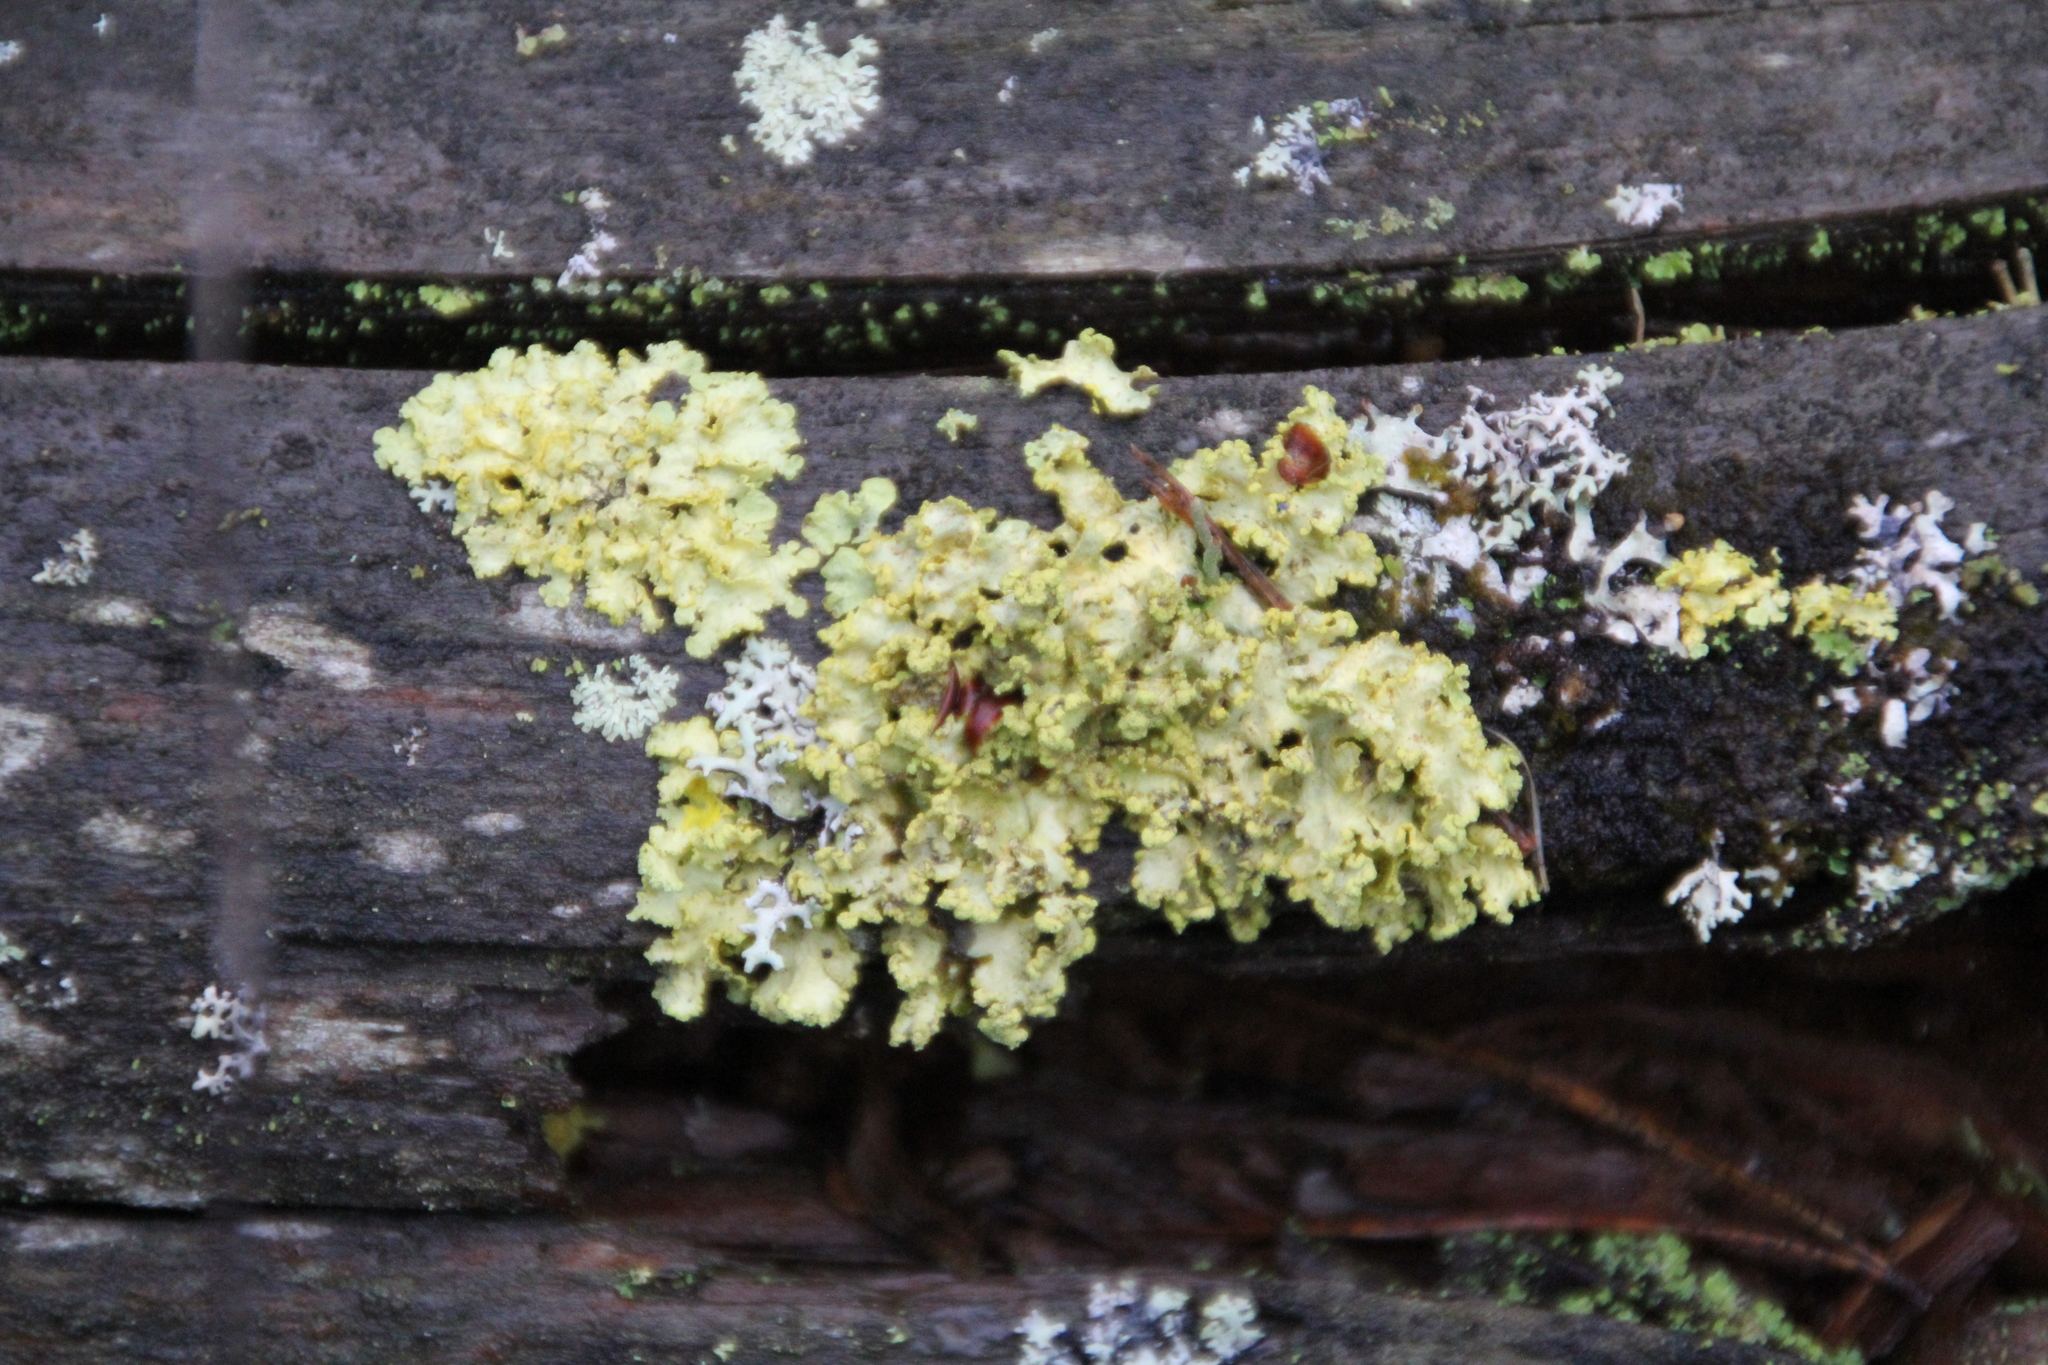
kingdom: Fungi
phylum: Ascomycota
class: Lecanoromycetes
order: Lecanorales
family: Parmeliaceae
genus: Vulpicida
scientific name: Vulpicida pinastri
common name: Powdered sunshine lichen
